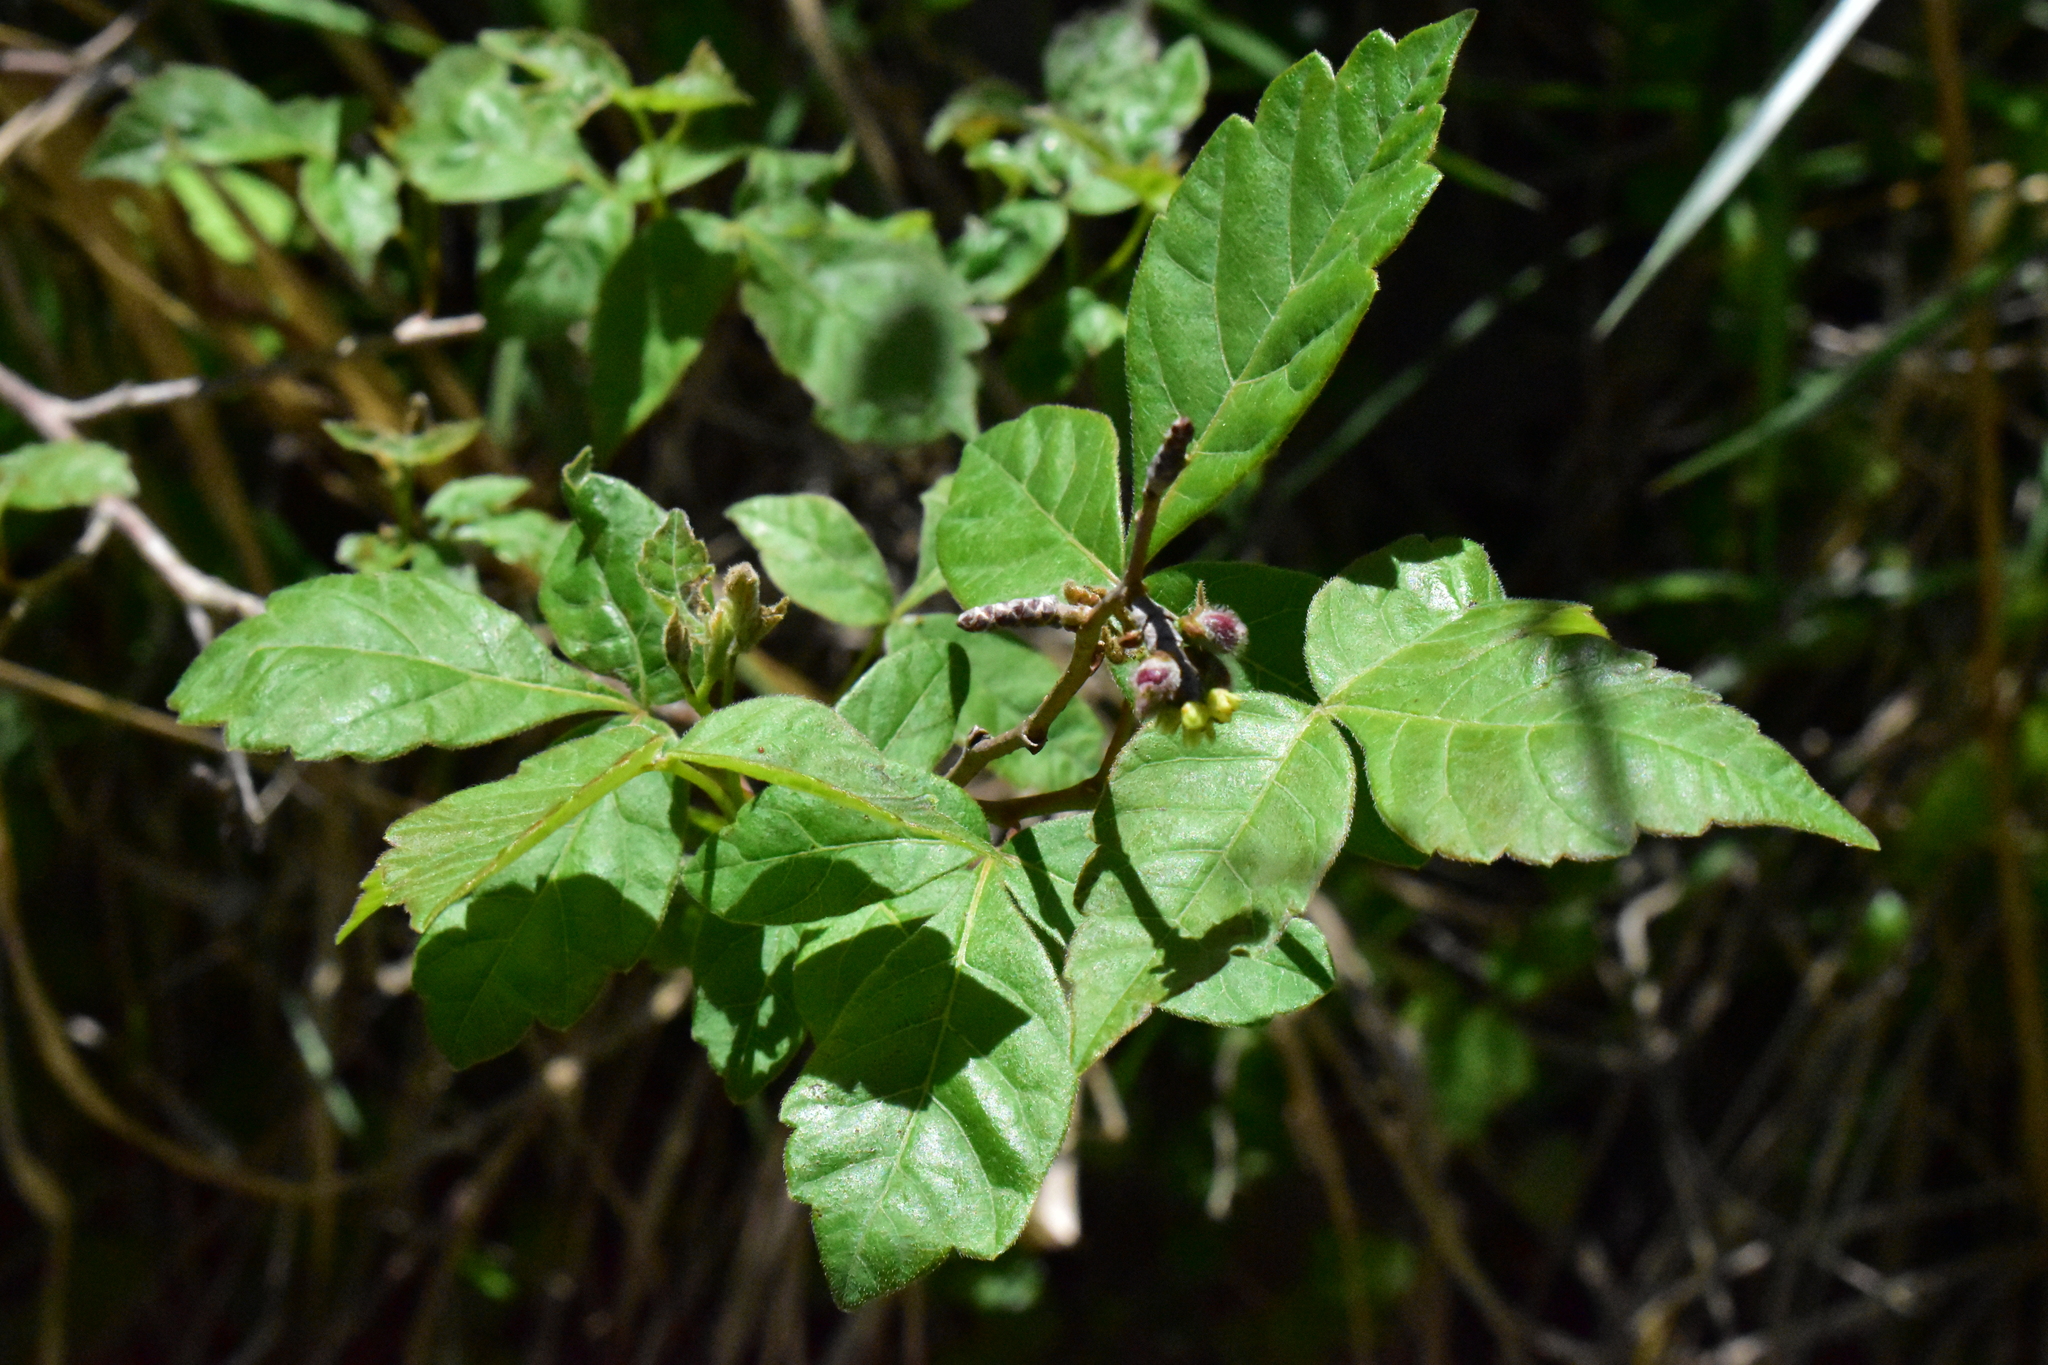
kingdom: Plantae
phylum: Tracheophyta
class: Magnoliopsida
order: Sapindales
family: Anacardiaceae
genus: Rhus
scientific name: Rhus aromatica
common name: Aromatic sumac
